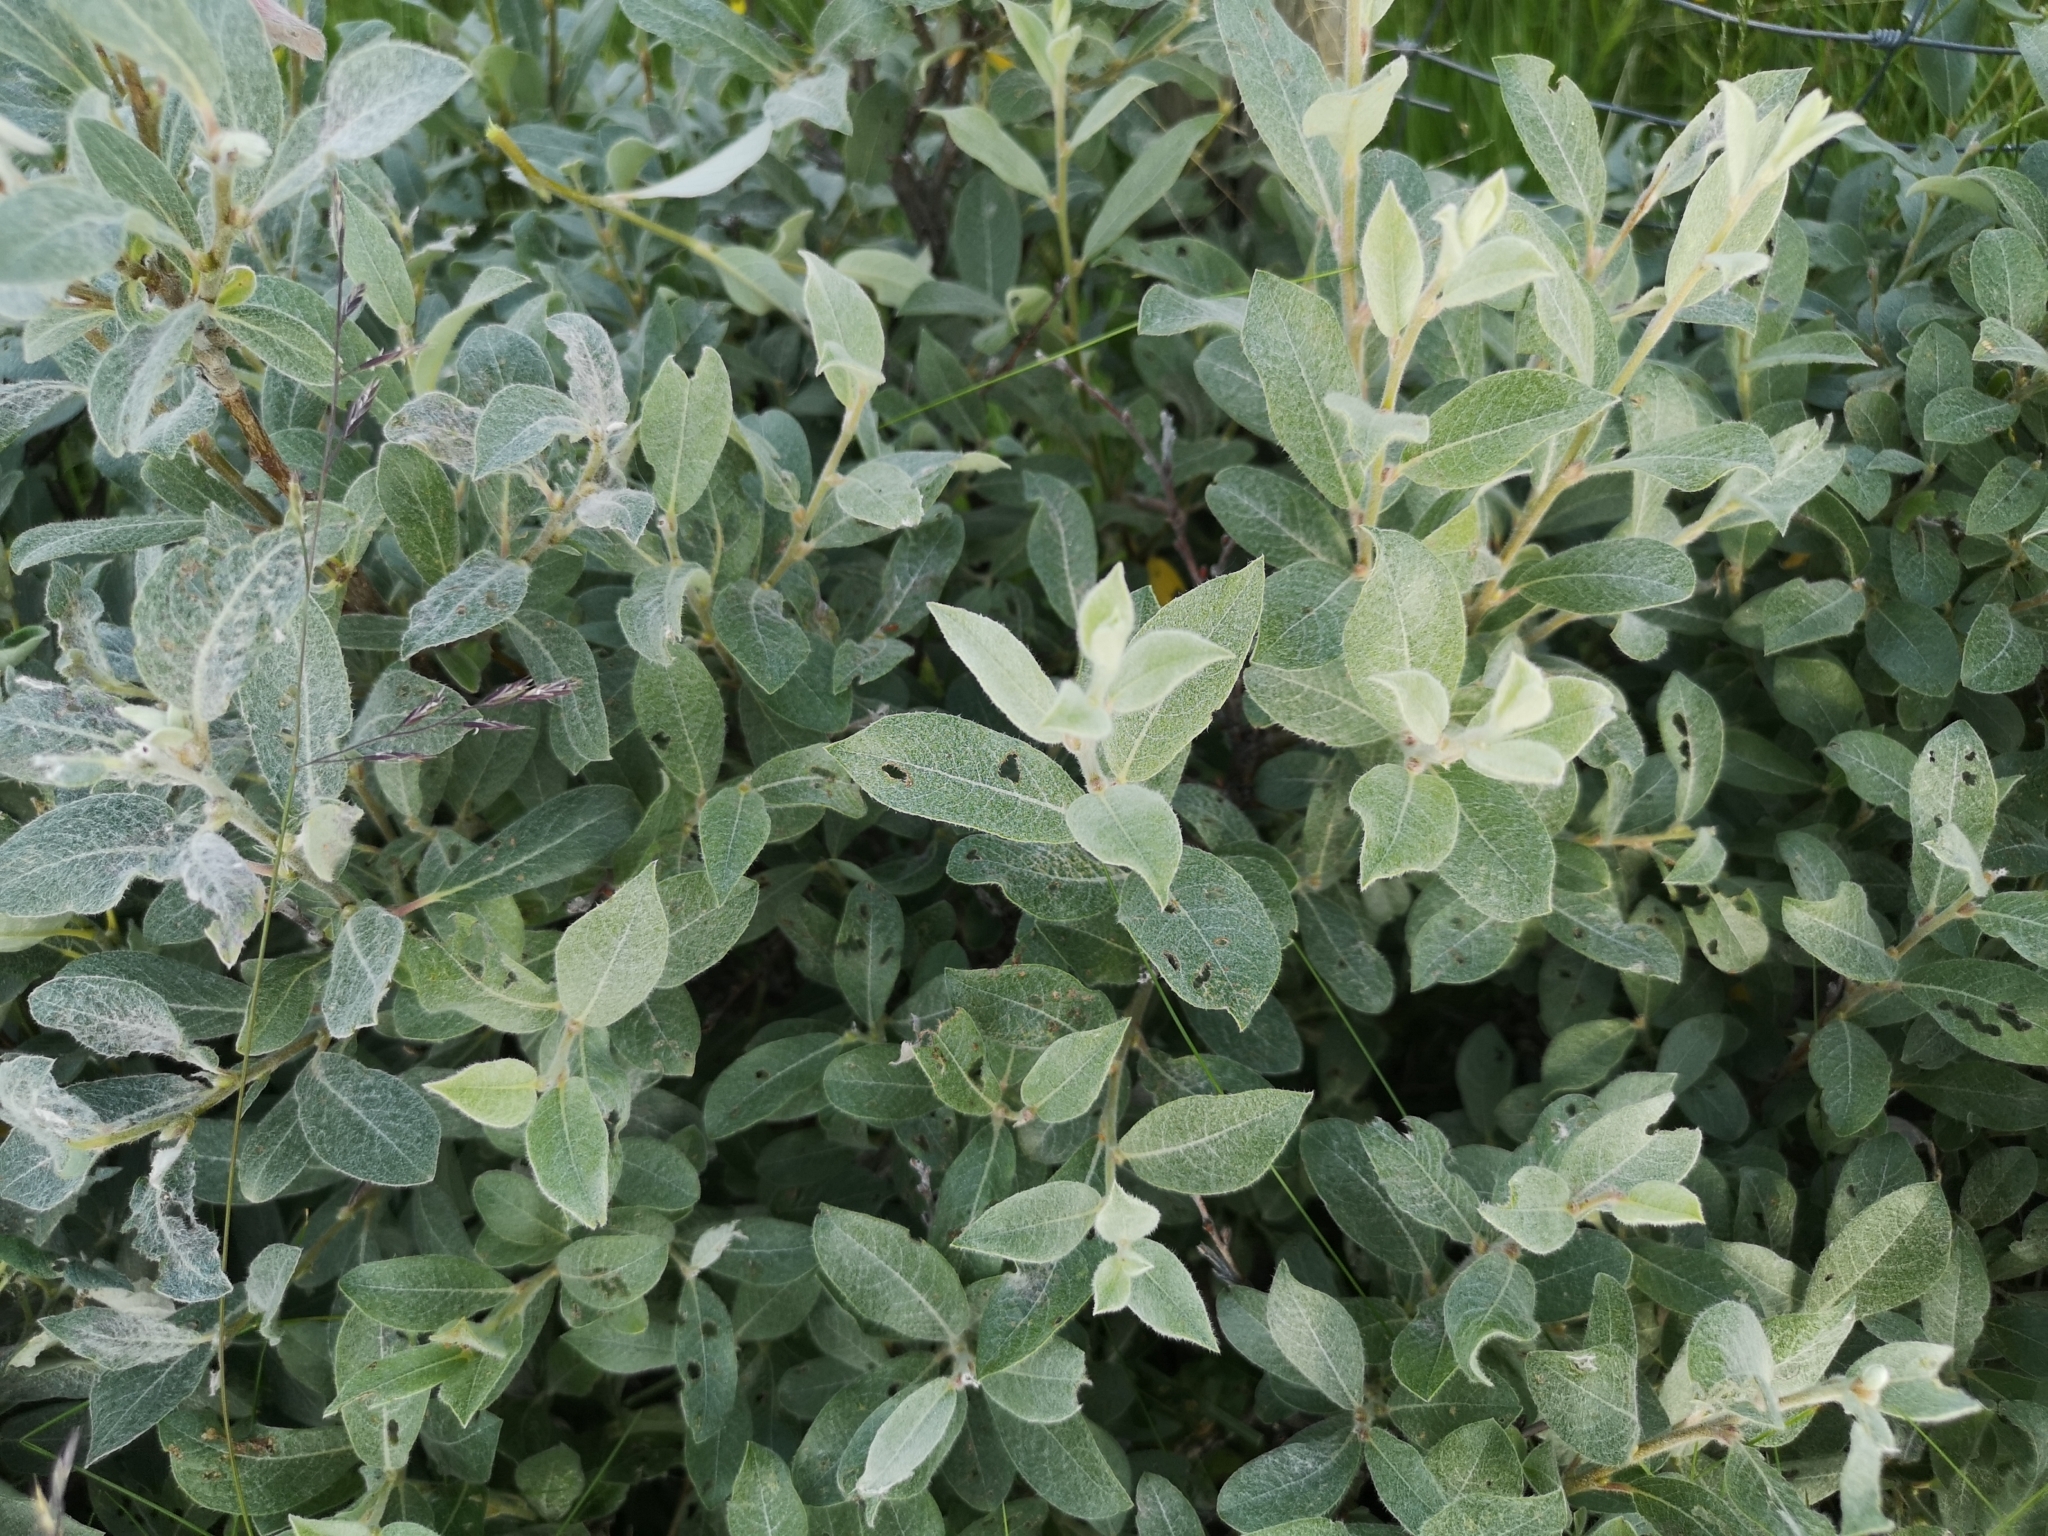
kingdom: Plantae
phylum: Tracheophyta
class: Magnoliopsida
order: Malpighiales
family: Salicaceae
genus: Salix
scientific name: Salix glauca
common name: Glaucous willow
